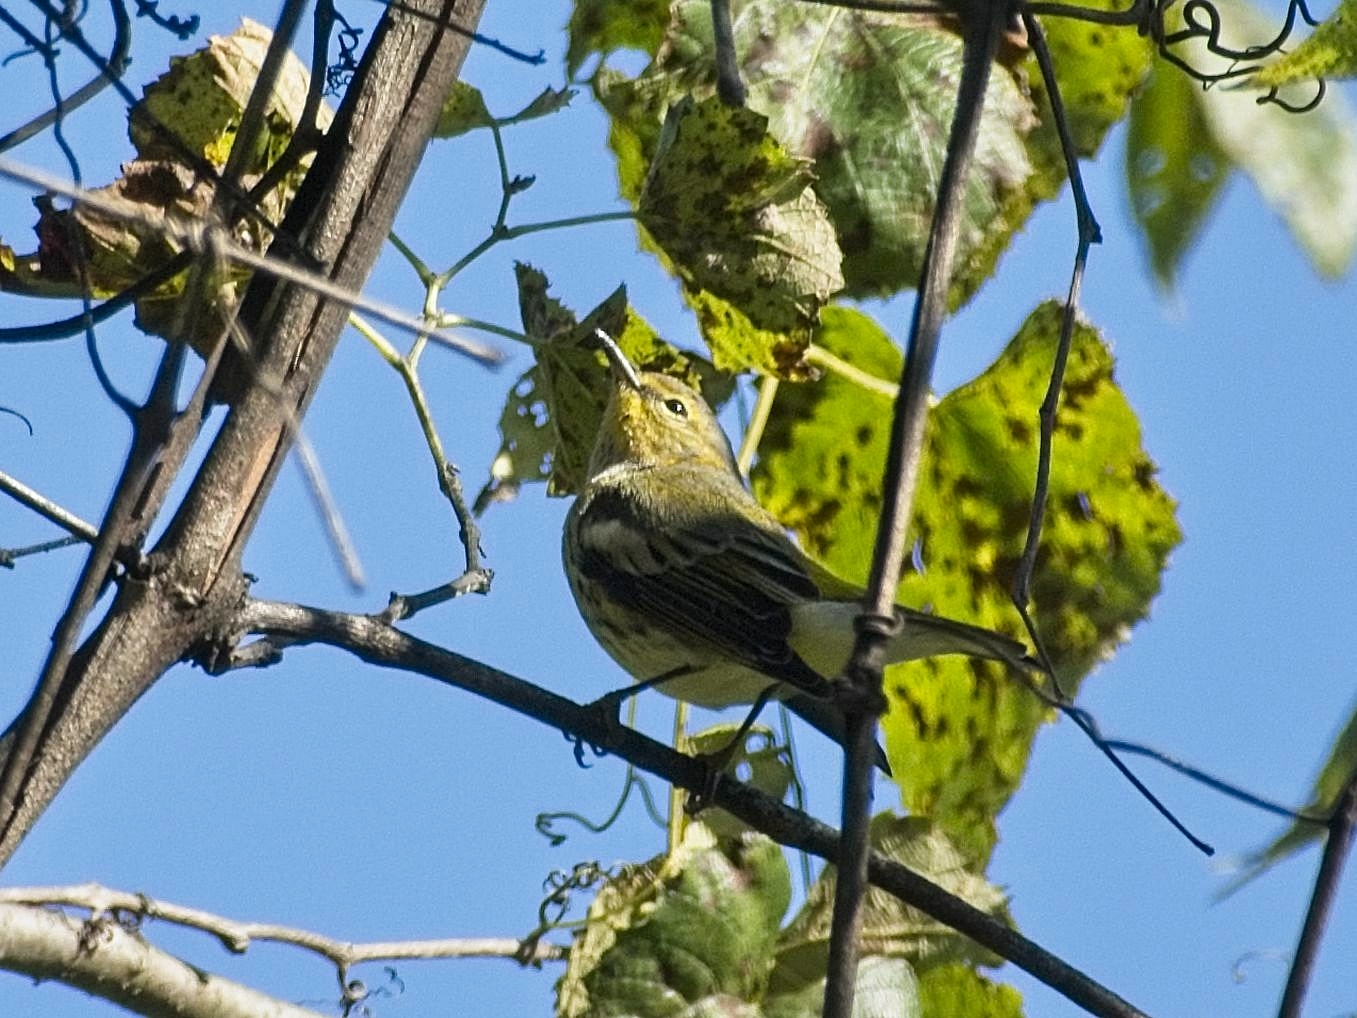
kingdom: Animalia
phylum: Chordata
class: Aves
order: Passeriformes
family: Parulidae
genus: Setophaga
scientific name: Setophaga tigrina
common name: Cape may warbler
